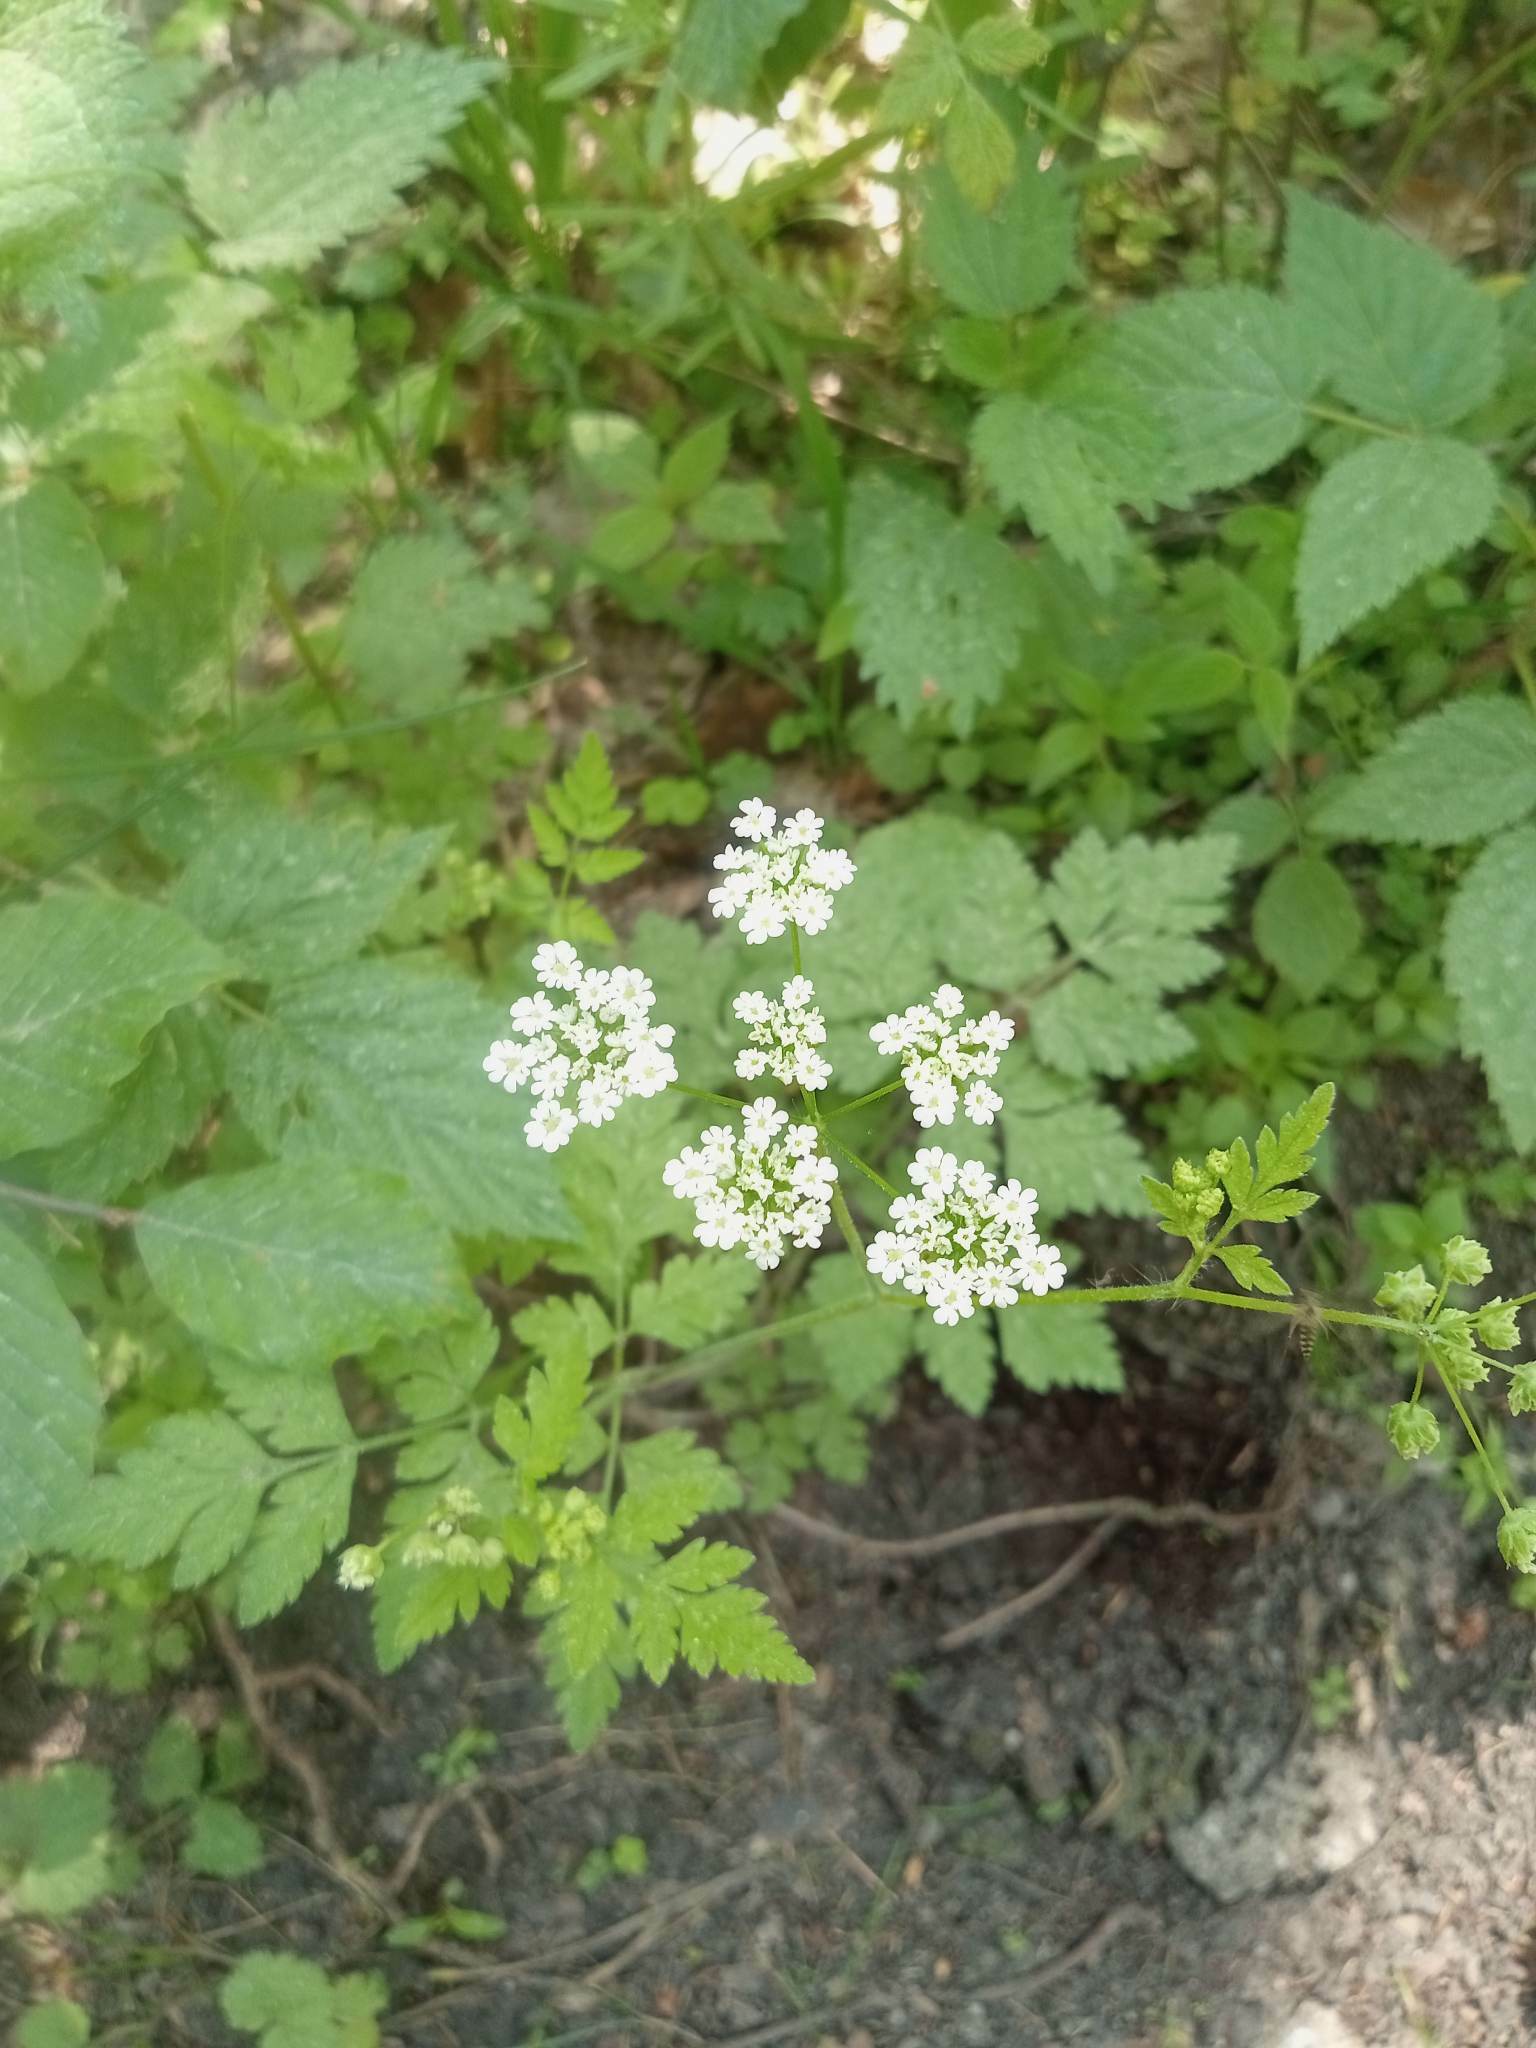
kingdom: Plantae
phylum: Tracheophyta
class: Magnoliopsida
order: Apiales
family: Apiaceae
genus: Chaerophyllum
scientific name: Chaerophyllum temulum
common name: Rough chervil
